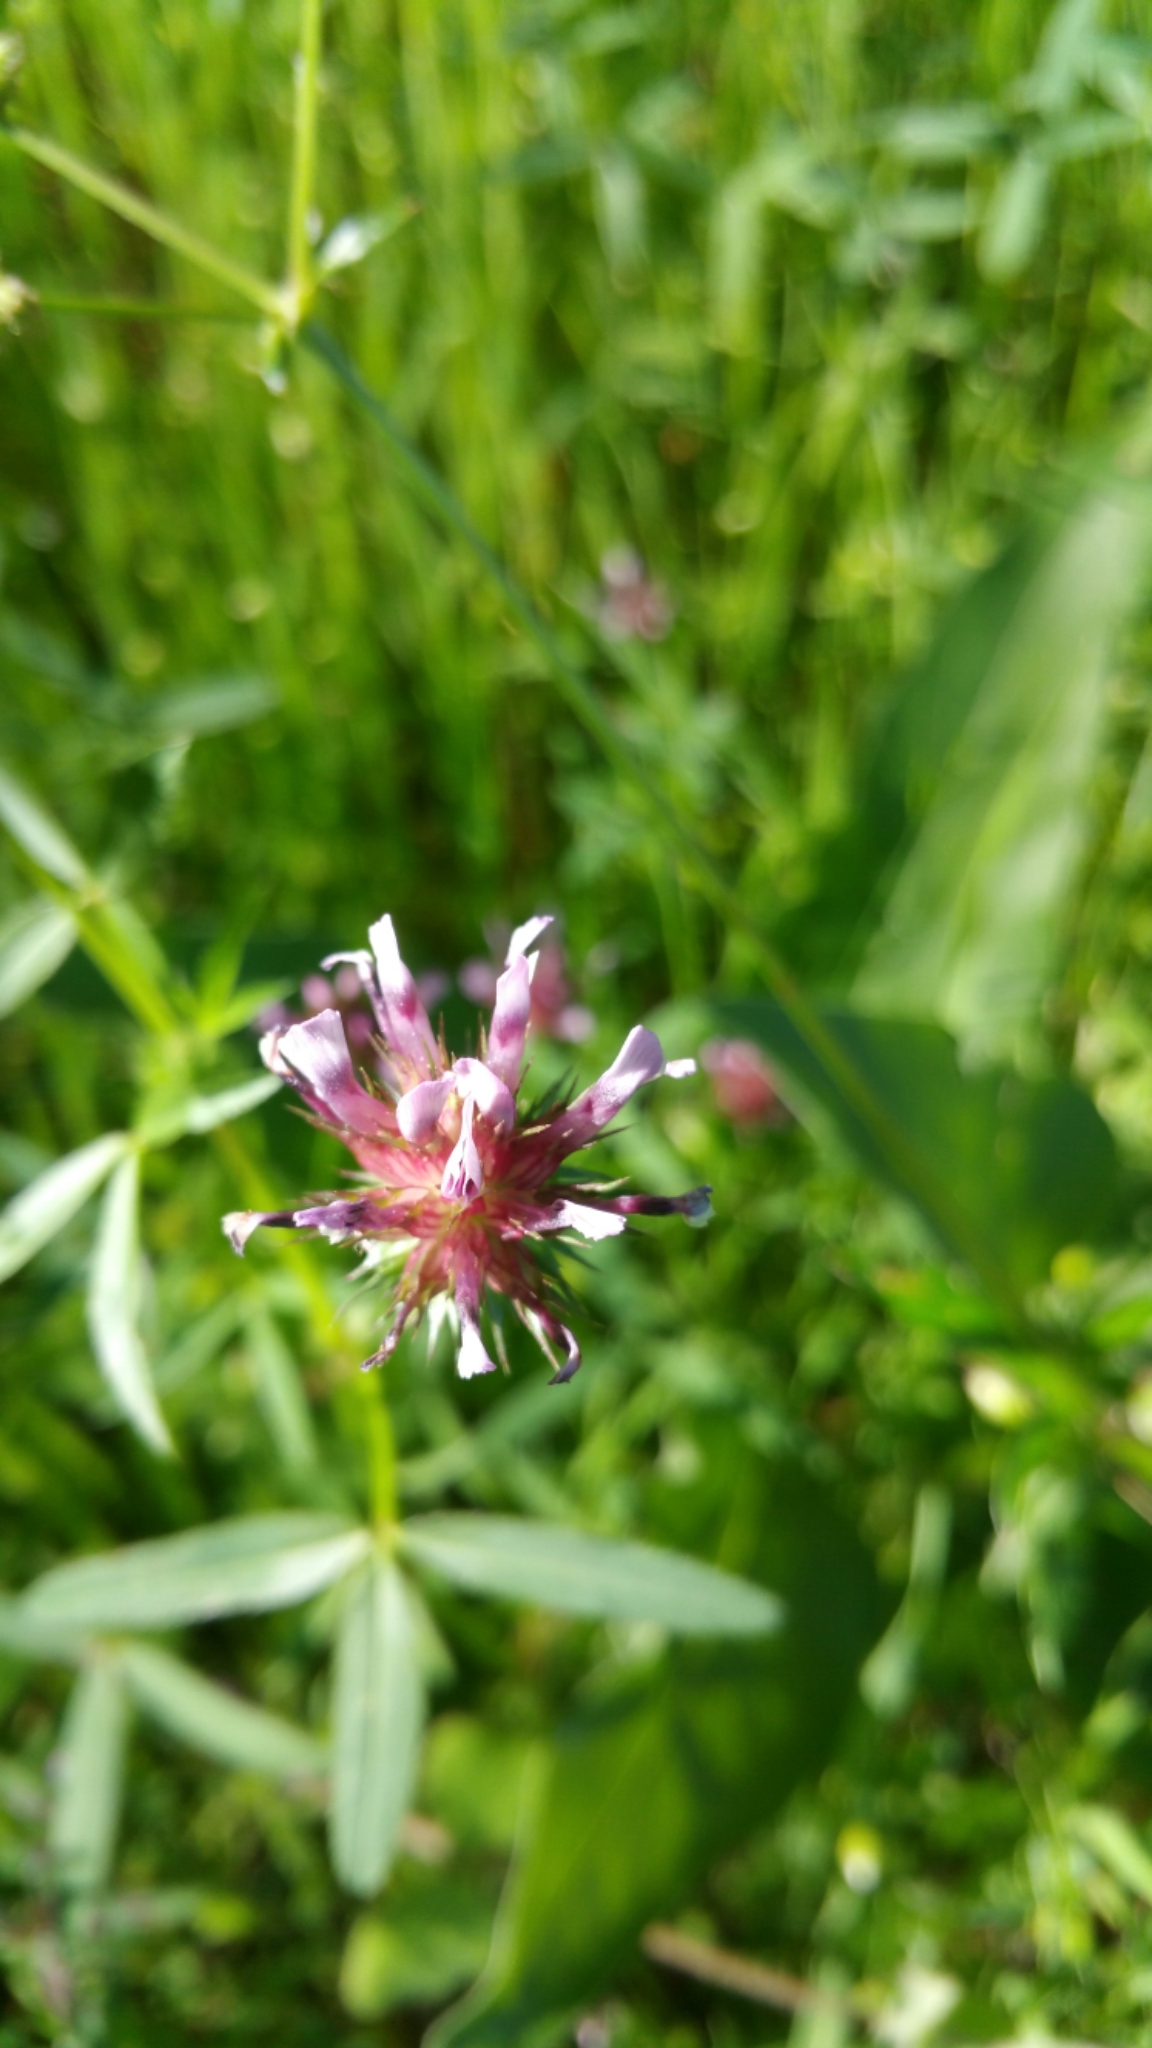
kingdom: Plantae
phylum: Tracheophyta
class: Magnoliopsida
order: Fabales
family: Fabaceae
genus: Trifolium
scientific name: Trifolium willdenovii
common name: Tomcat clover
